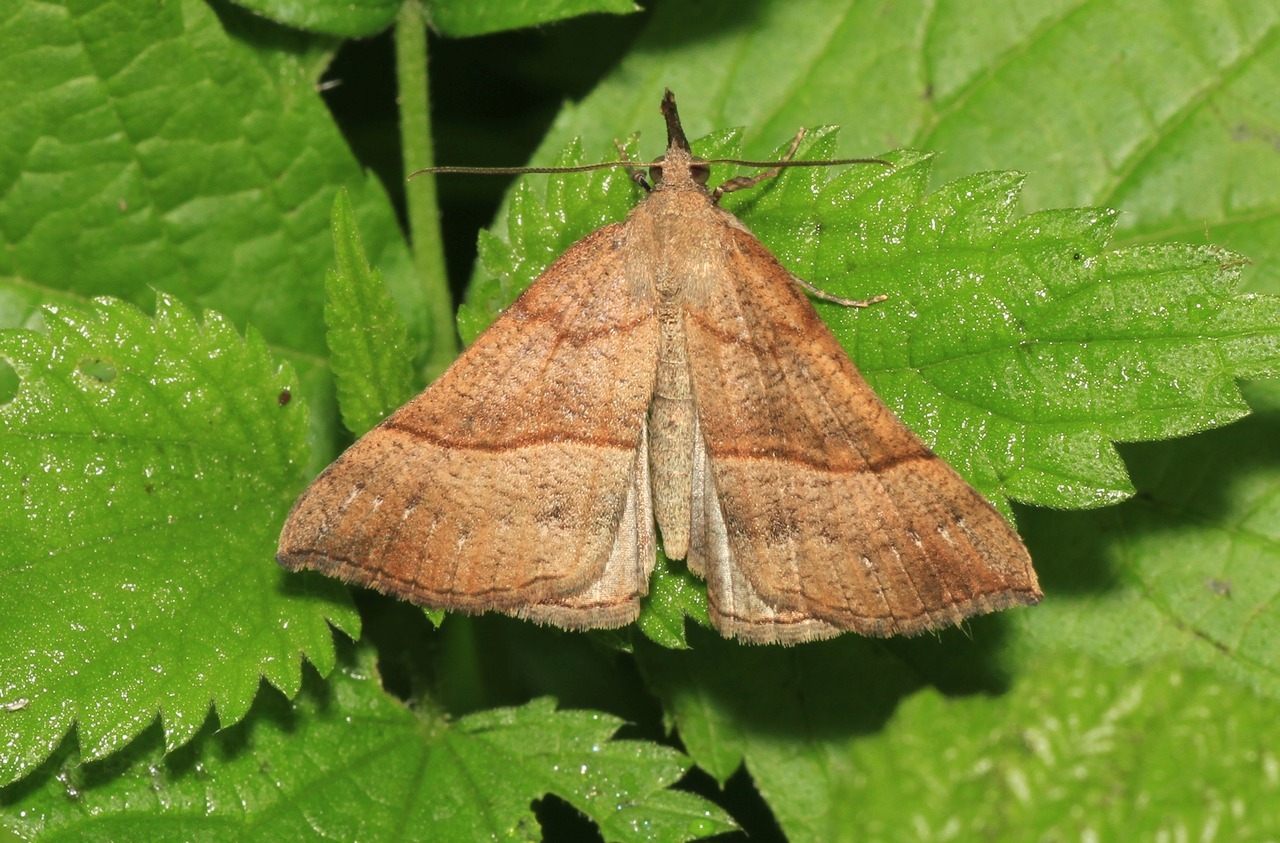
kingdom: Animalia
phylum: Arthropoda
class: Insecta
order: Lepidoptera
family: Erebidae
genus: Hypena
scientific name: Hypena proboscidalis
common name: Snout
